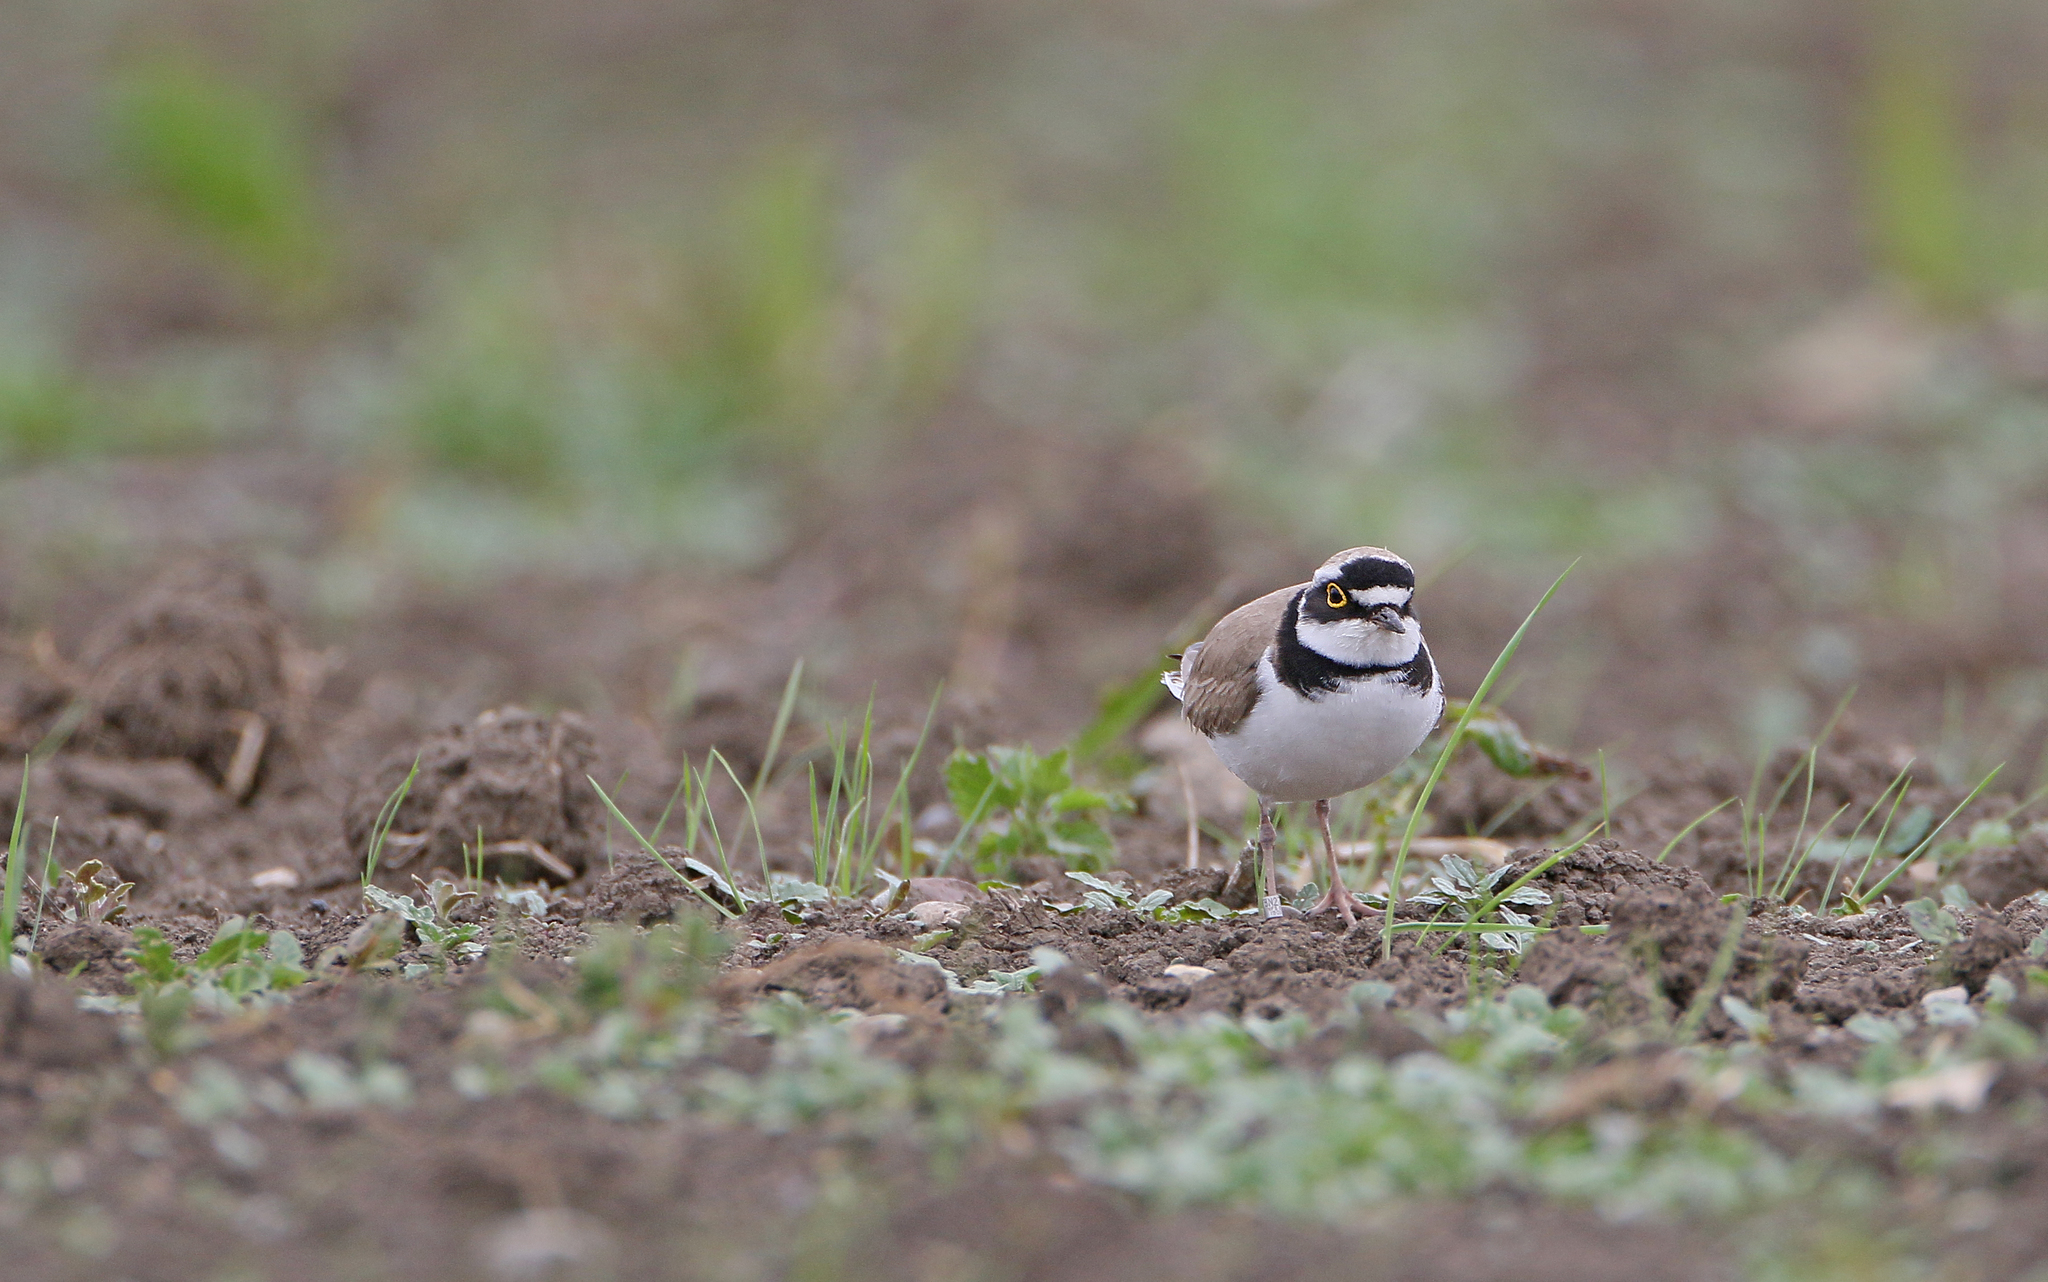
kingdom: Animalia
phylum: Chordata
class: Aves
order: Charadriiformes
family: Charadriidae
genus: Charadrius
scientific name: Charadrius dubius
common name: Little ringed plover
